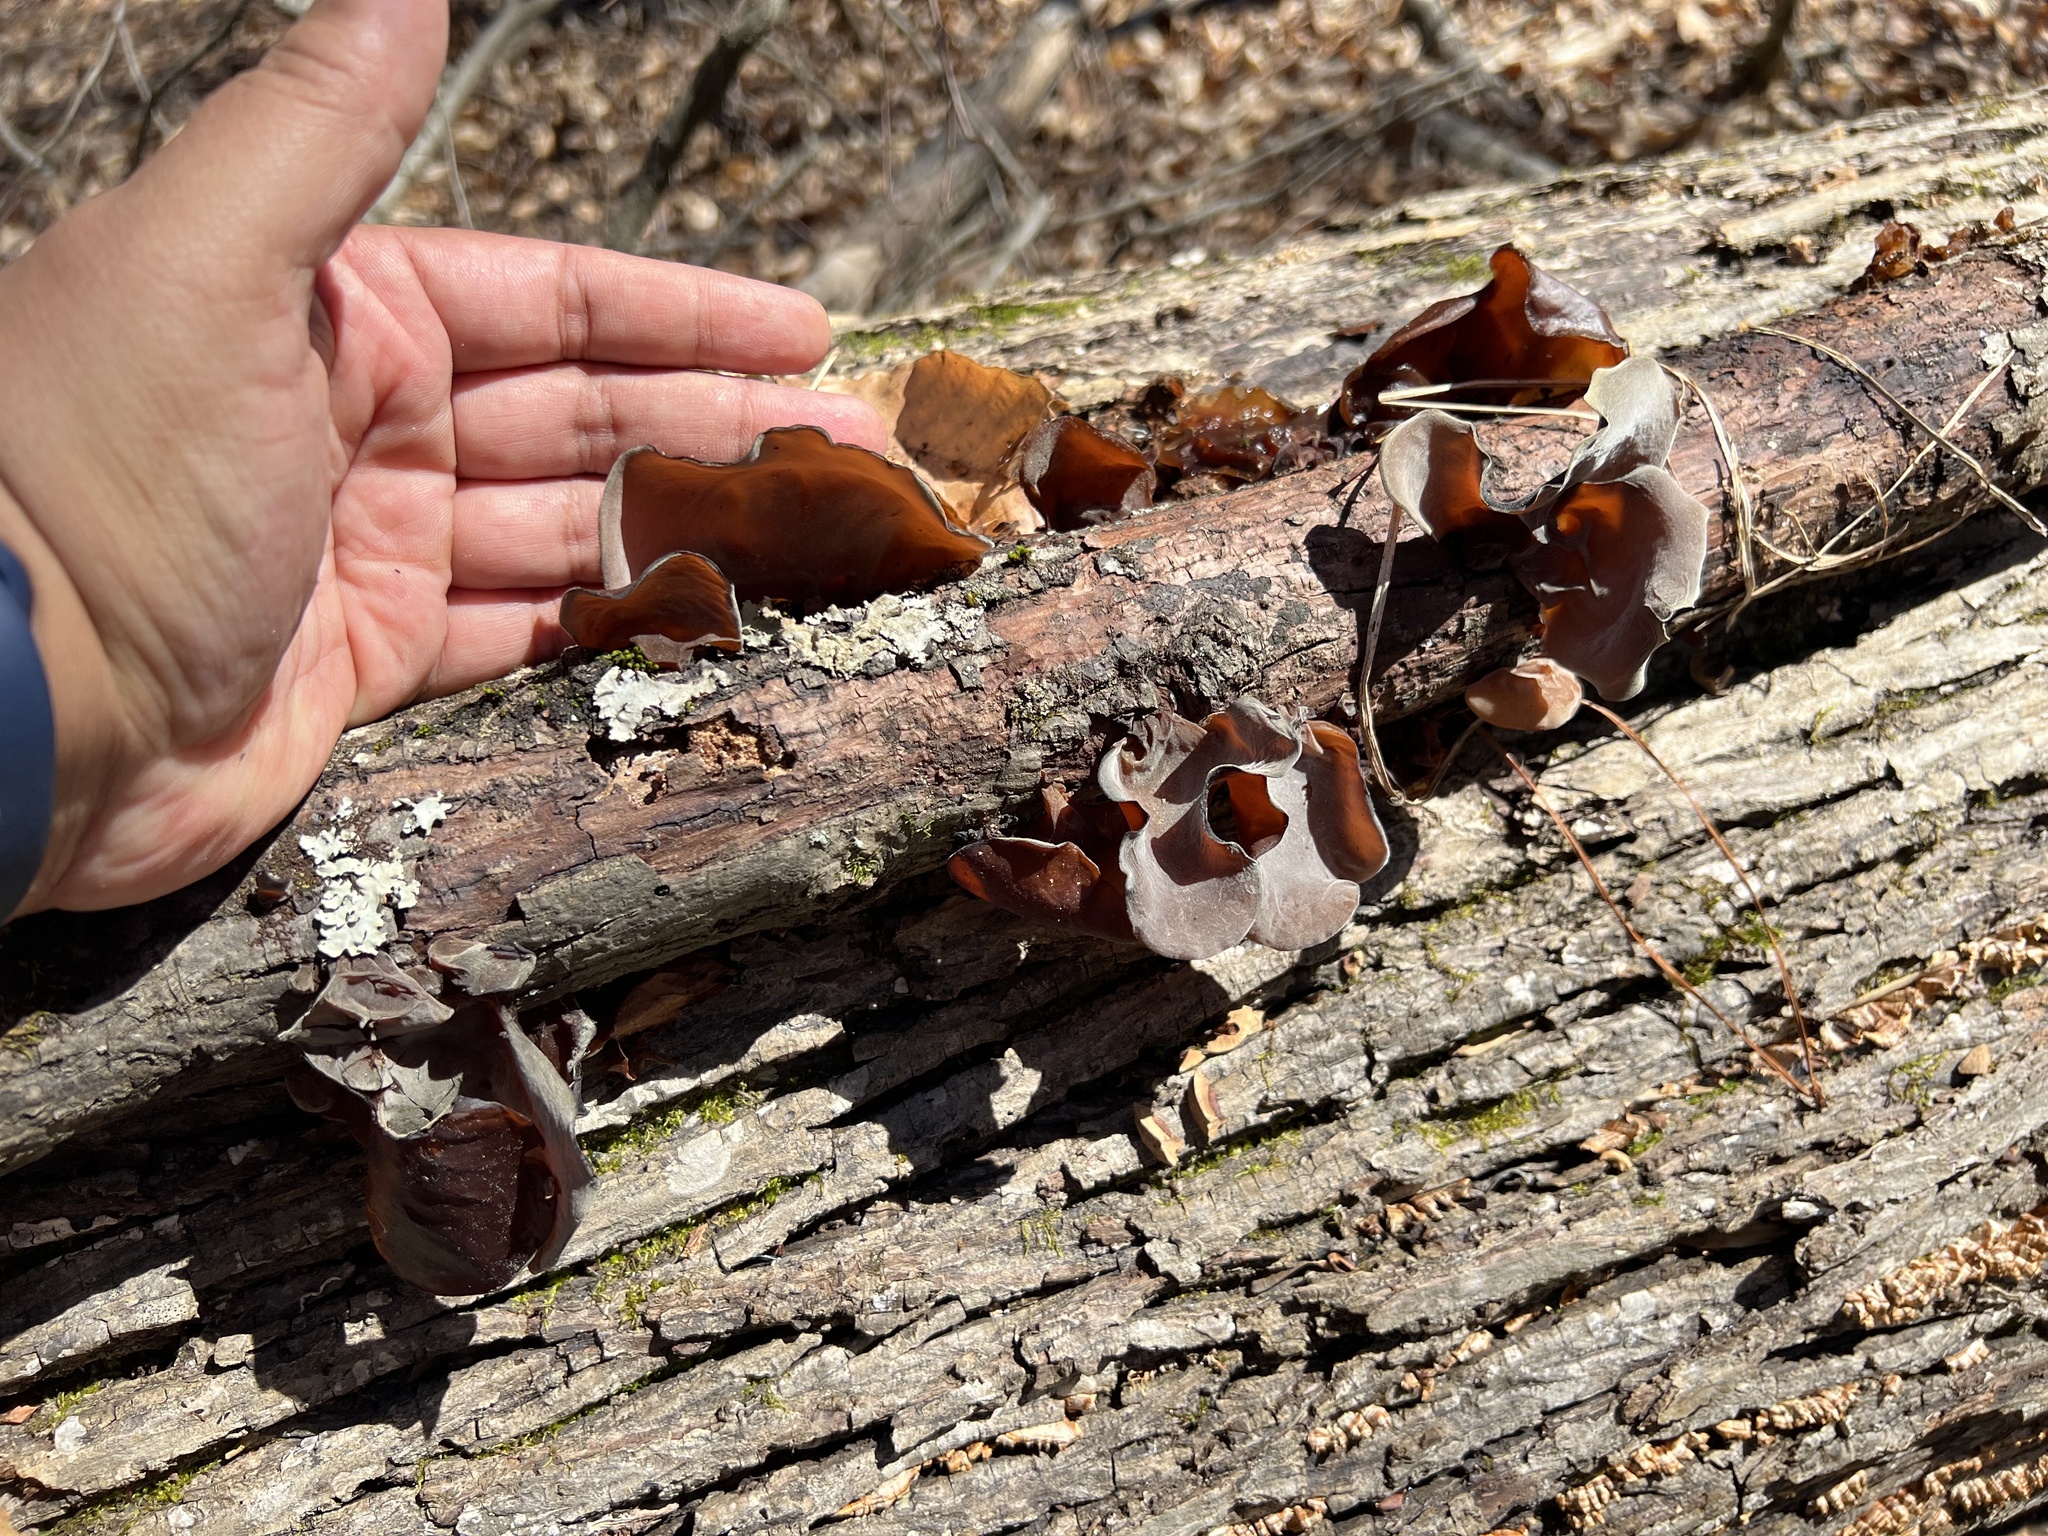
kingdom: Fungi
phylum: Basidiomycota
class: Agaricomycetes
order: Auriculariales
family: Auriculariaceae
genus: Auricularia
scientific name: Auricularia angiospermarum
